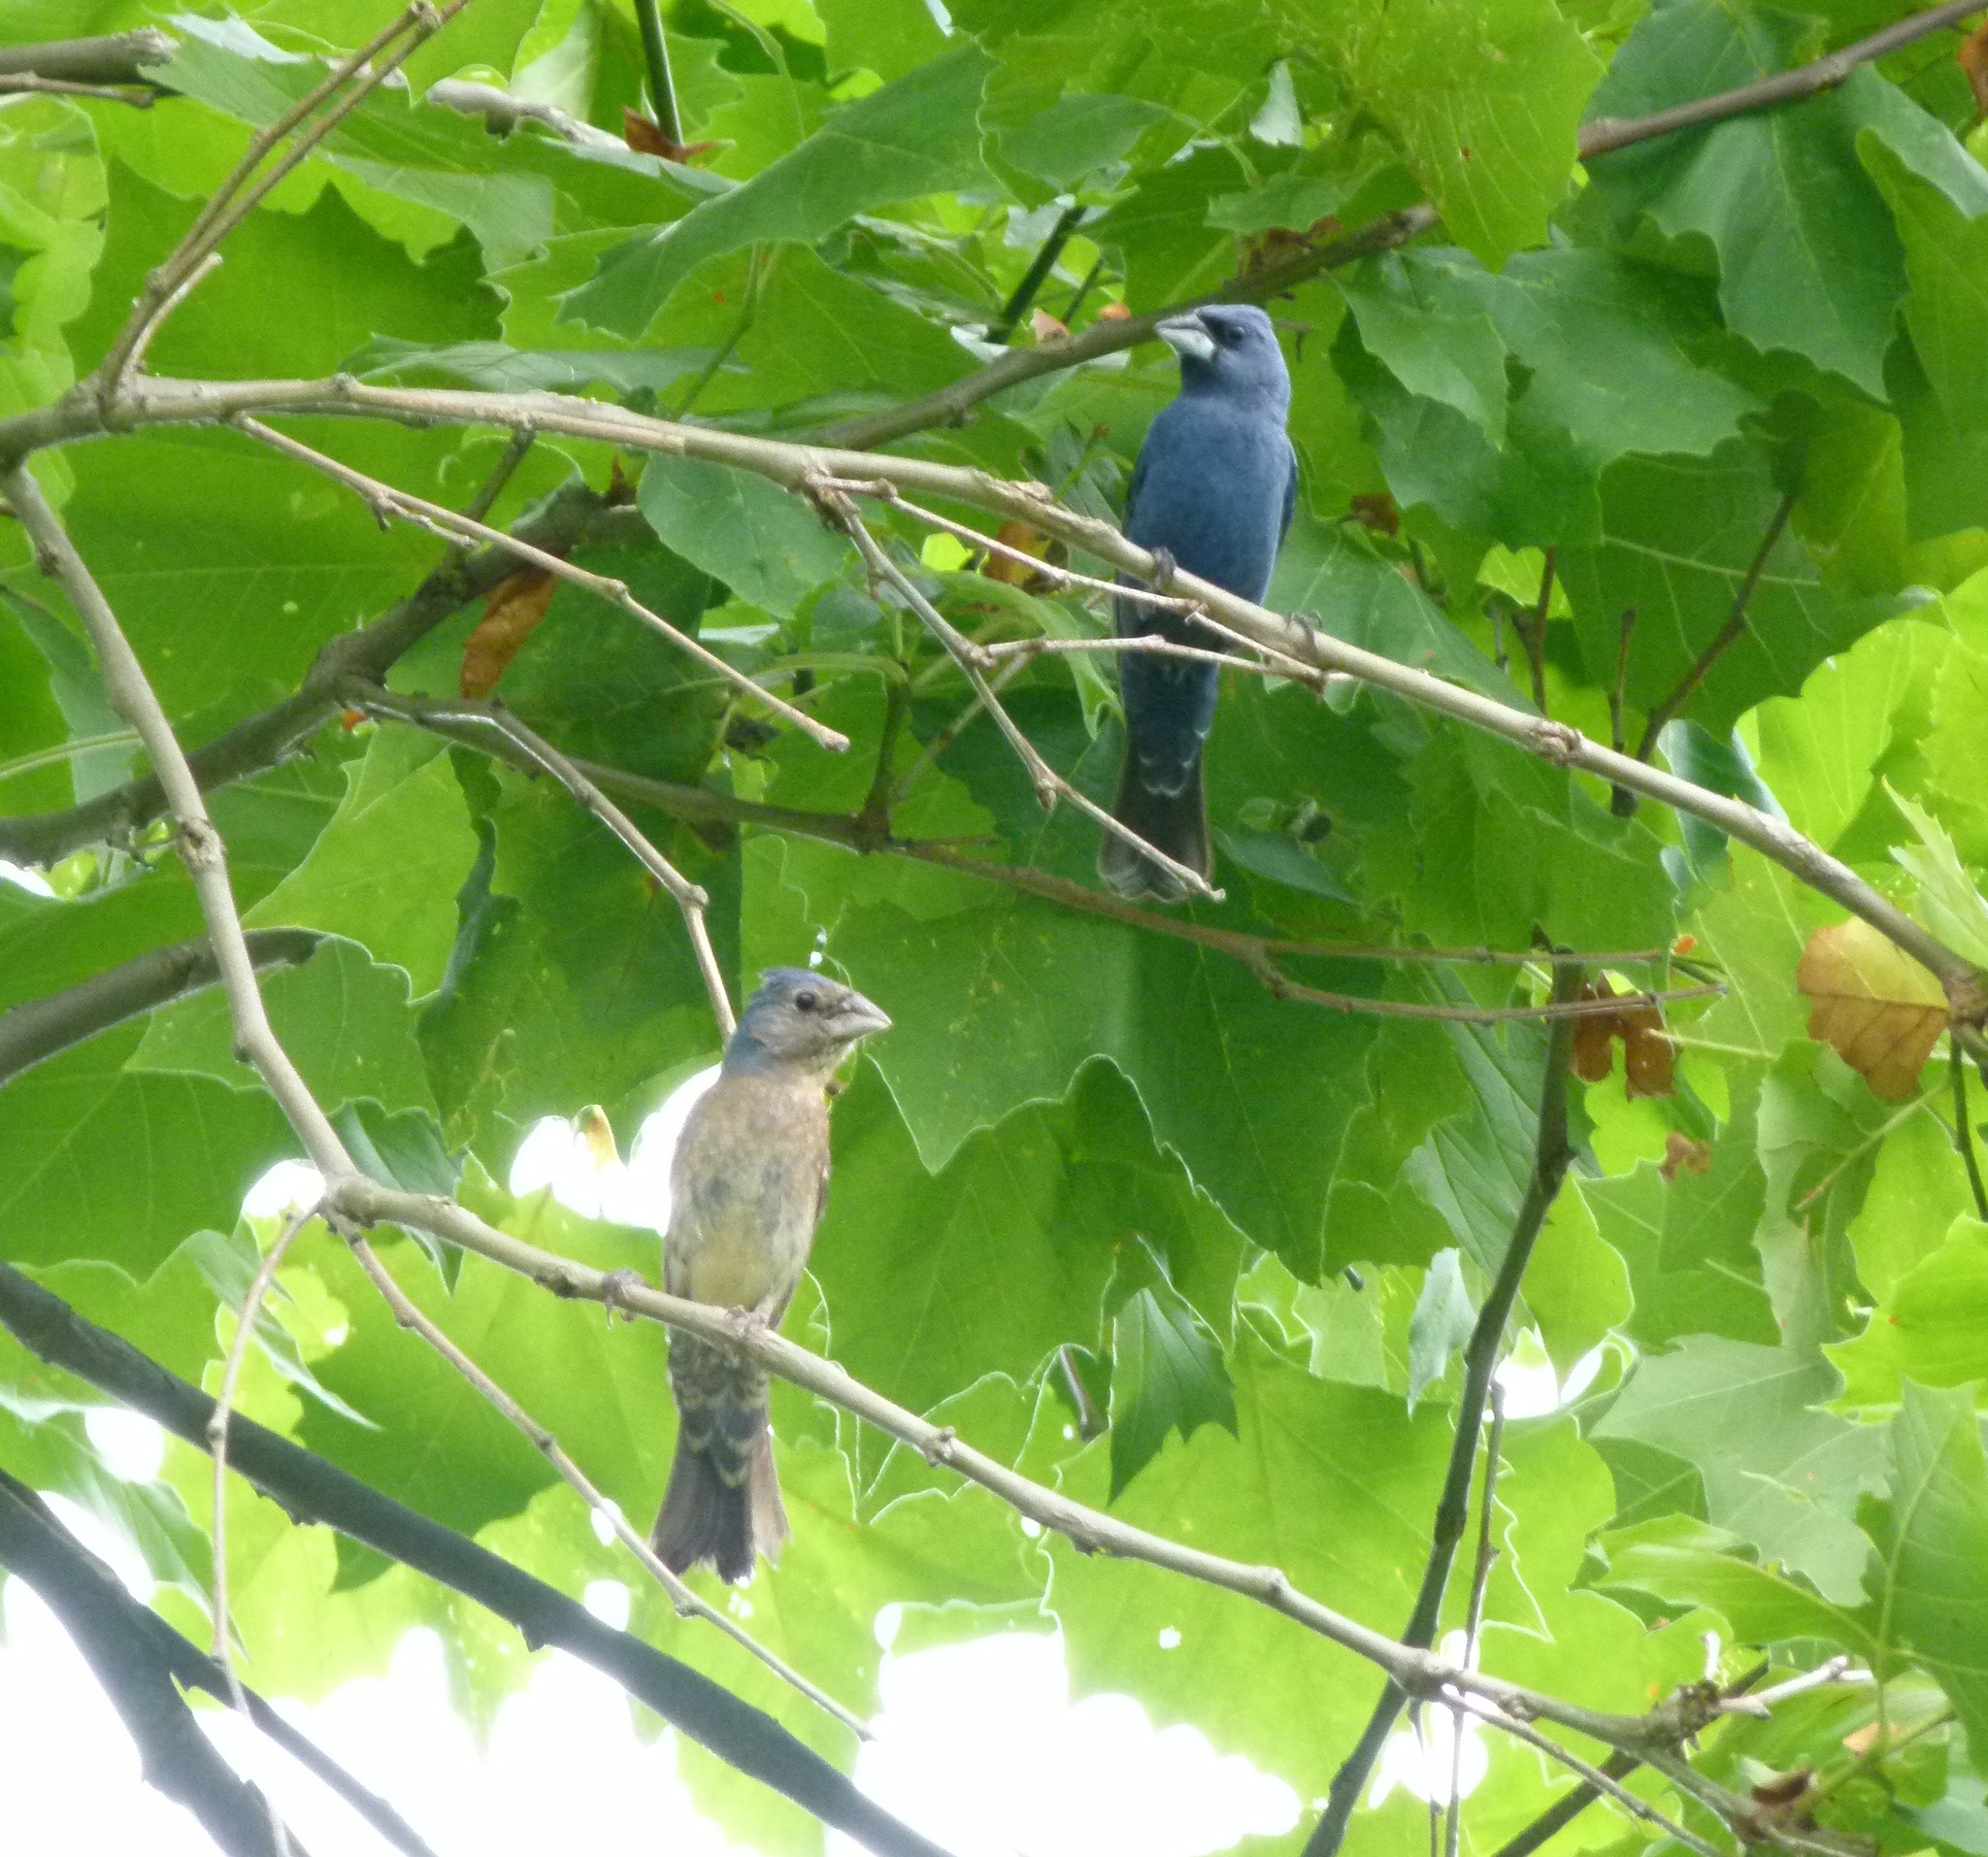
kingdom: Animalia
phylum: Chordata
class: Aves
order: Passeriformes
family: Cardinalidae
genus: Passerina
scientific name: Passerina caerulea
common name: Blue grosbeak
